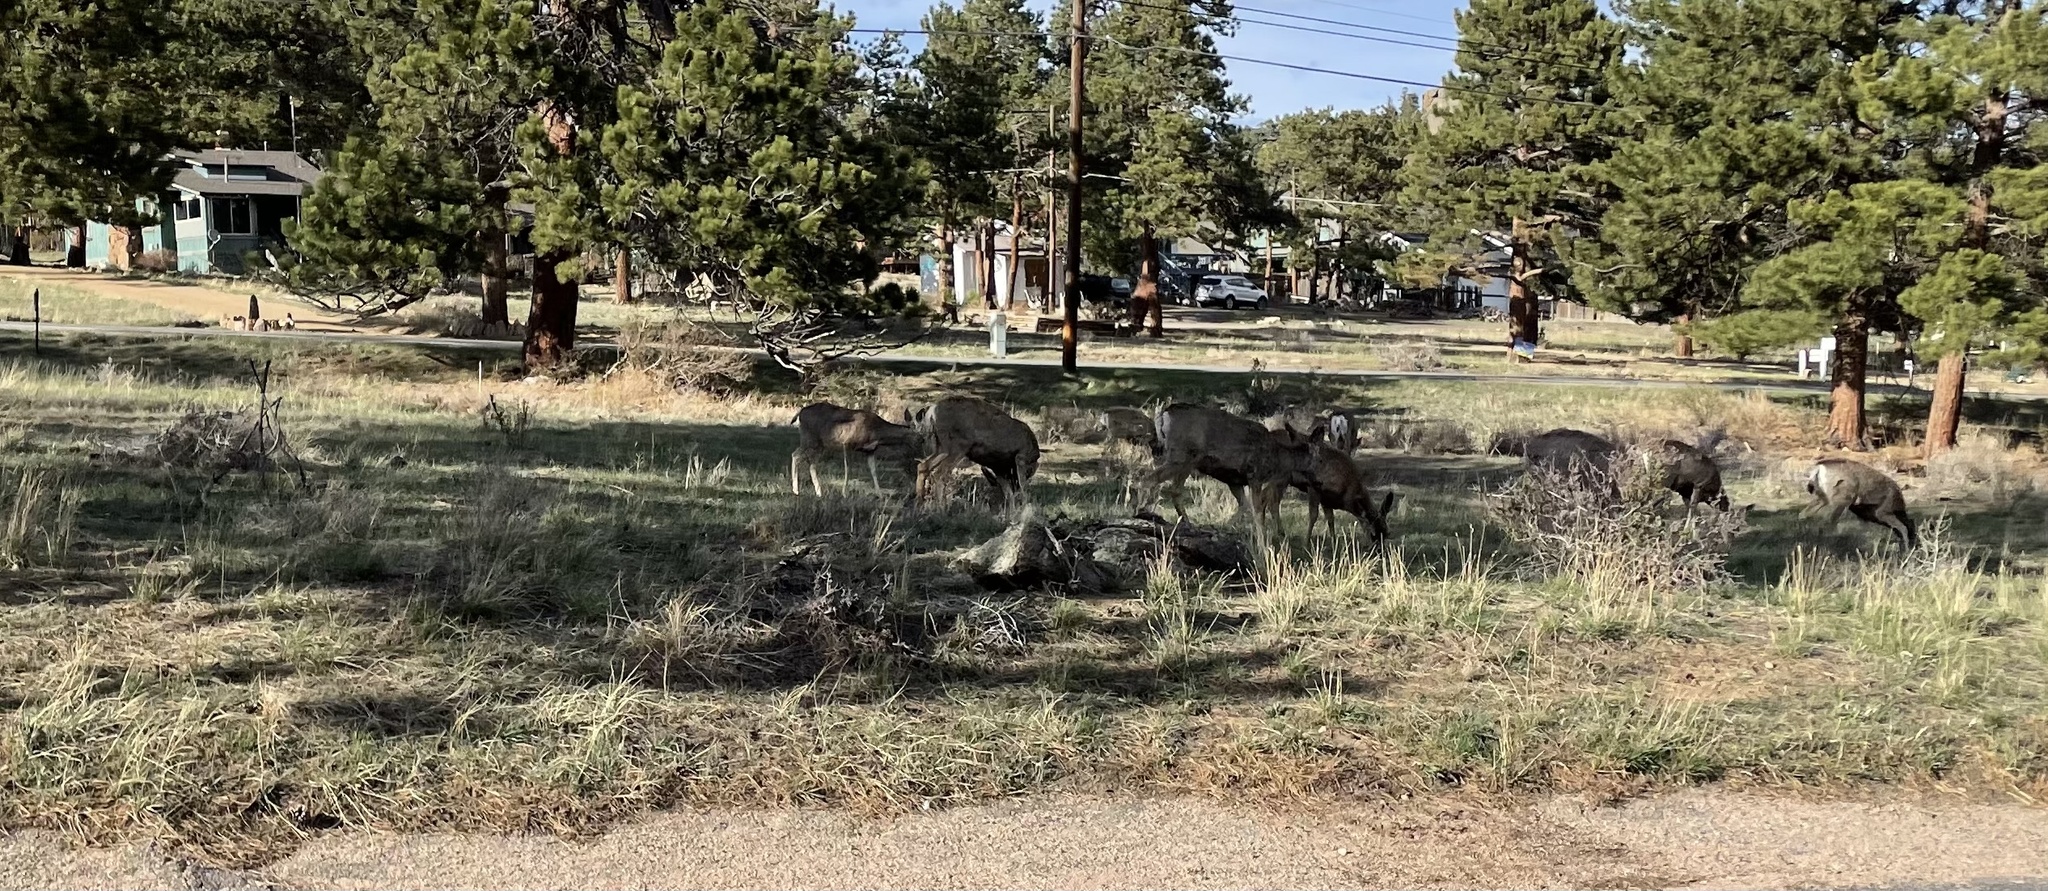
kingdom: Animalia
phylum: Chordata
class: Mammalia
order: Artiodactyla
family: Cervidae
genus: Odocoileus
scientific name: Odocoileus hemionus
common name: Mule deer
